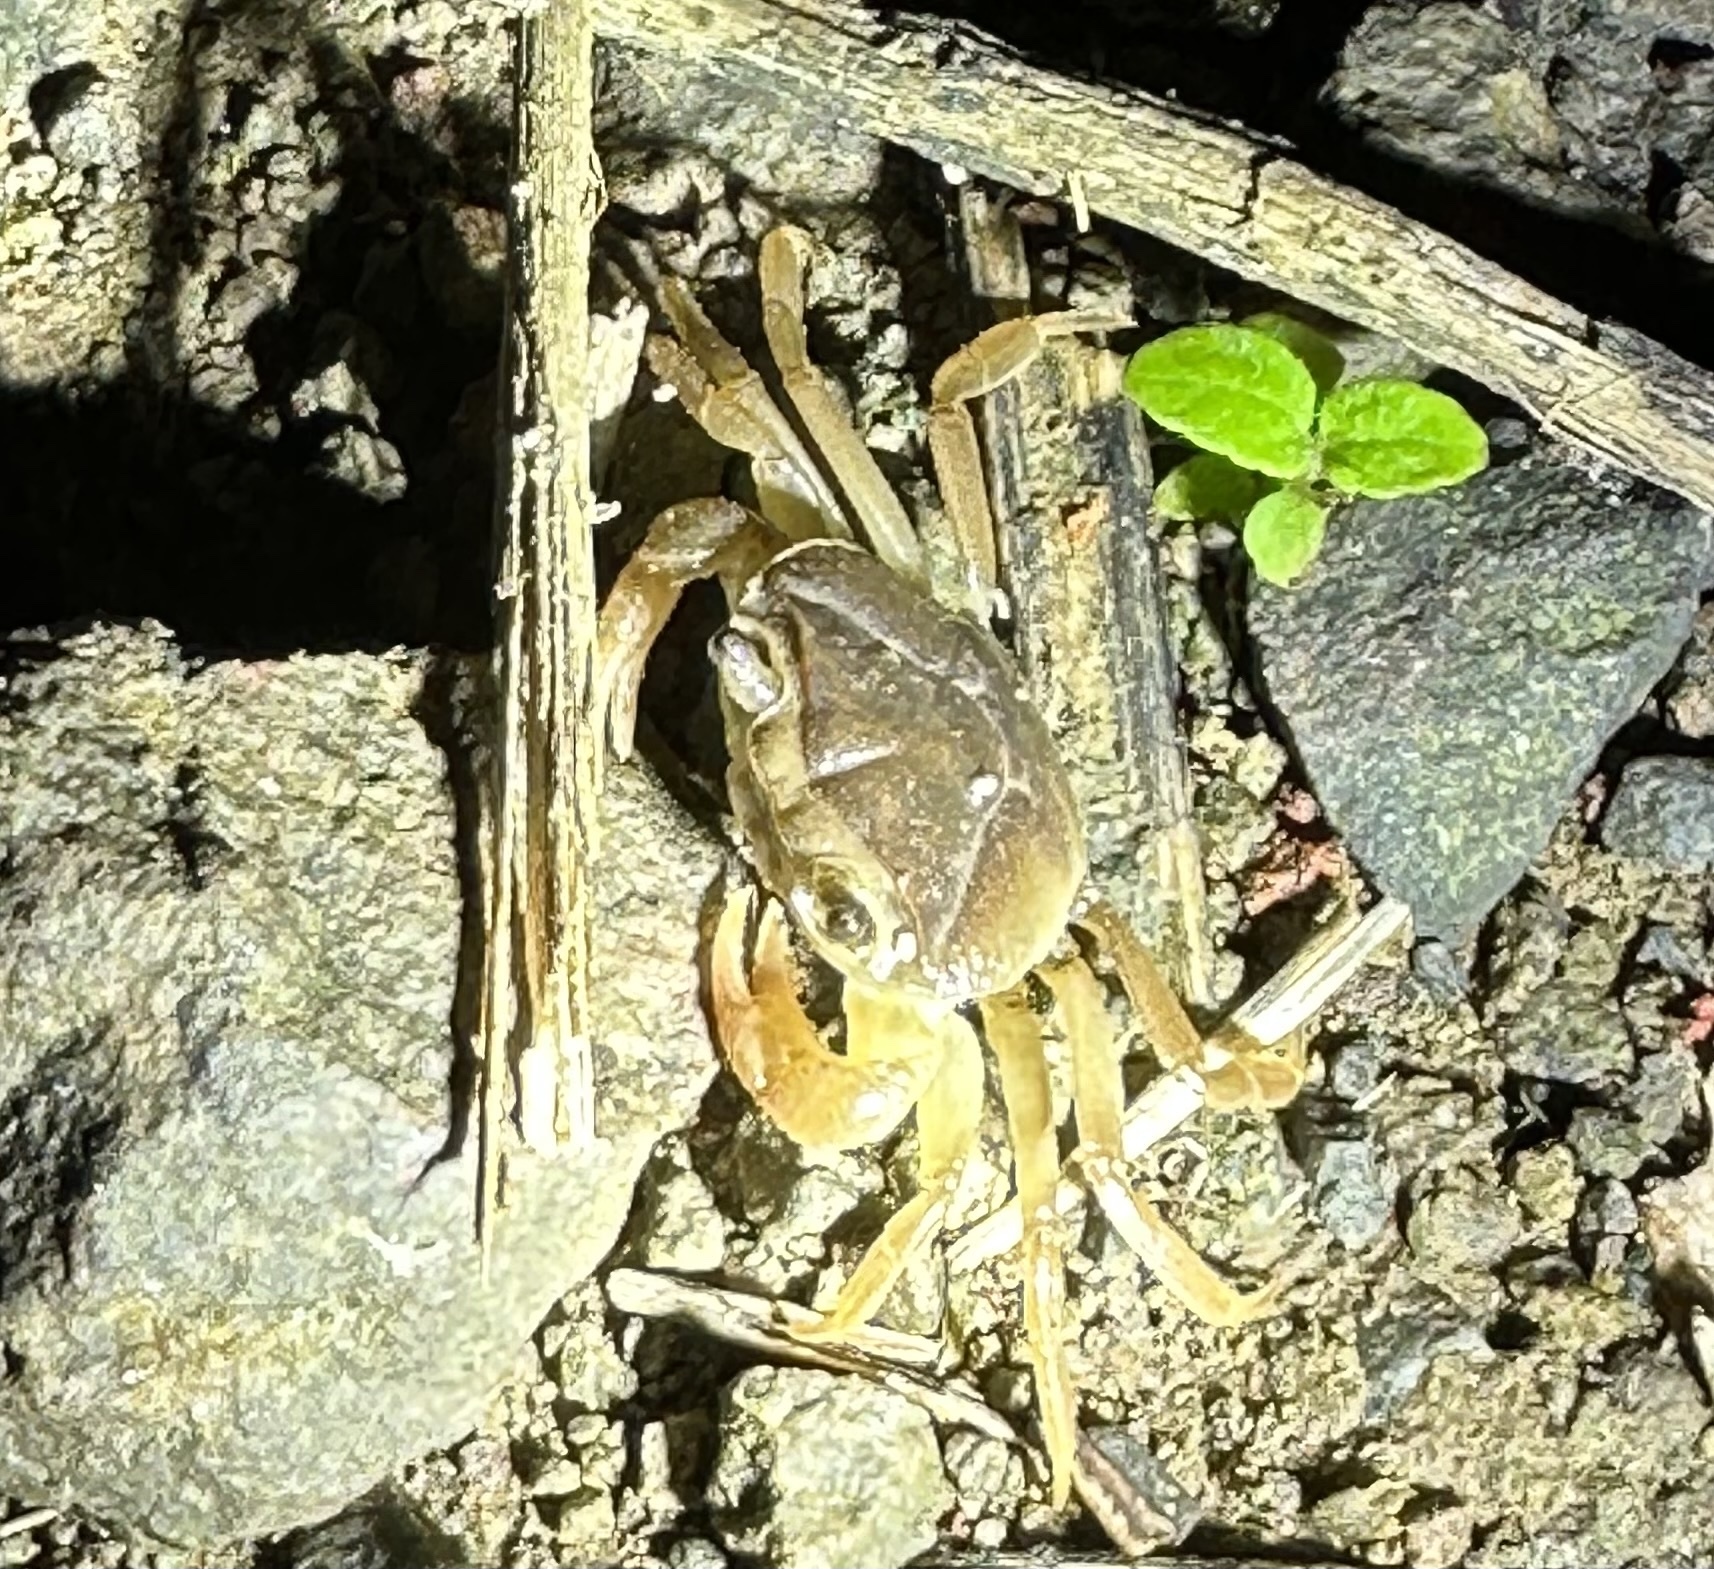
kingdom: Animalia
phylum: Arthropoda
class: Malacostraca
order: Decapoda
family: Gecarcinucidae
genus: Barusa
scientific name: Barusa guerini
